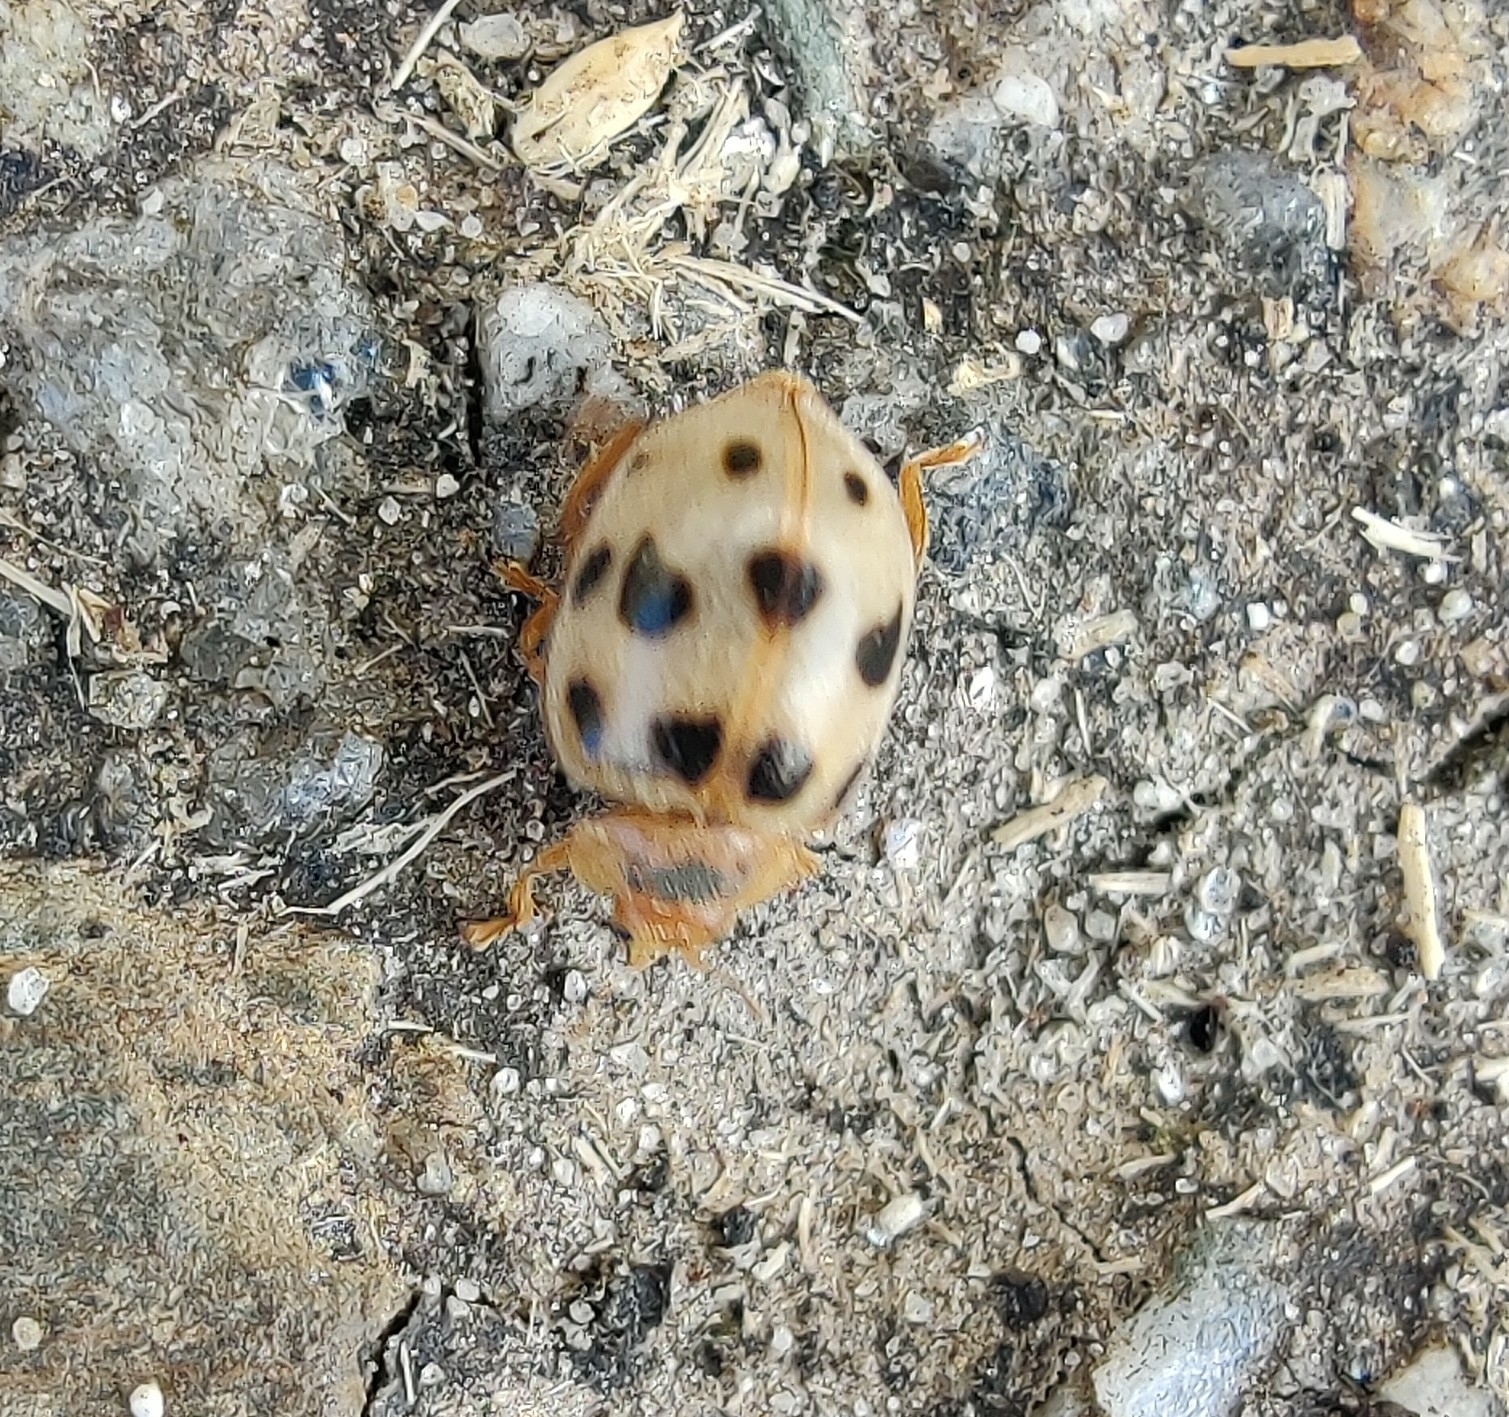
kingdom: Animalia
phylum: Arthropoda
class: Insecta
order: Coleoptera
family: Coccinellidae
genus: Afidentula
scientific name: Afidentula
